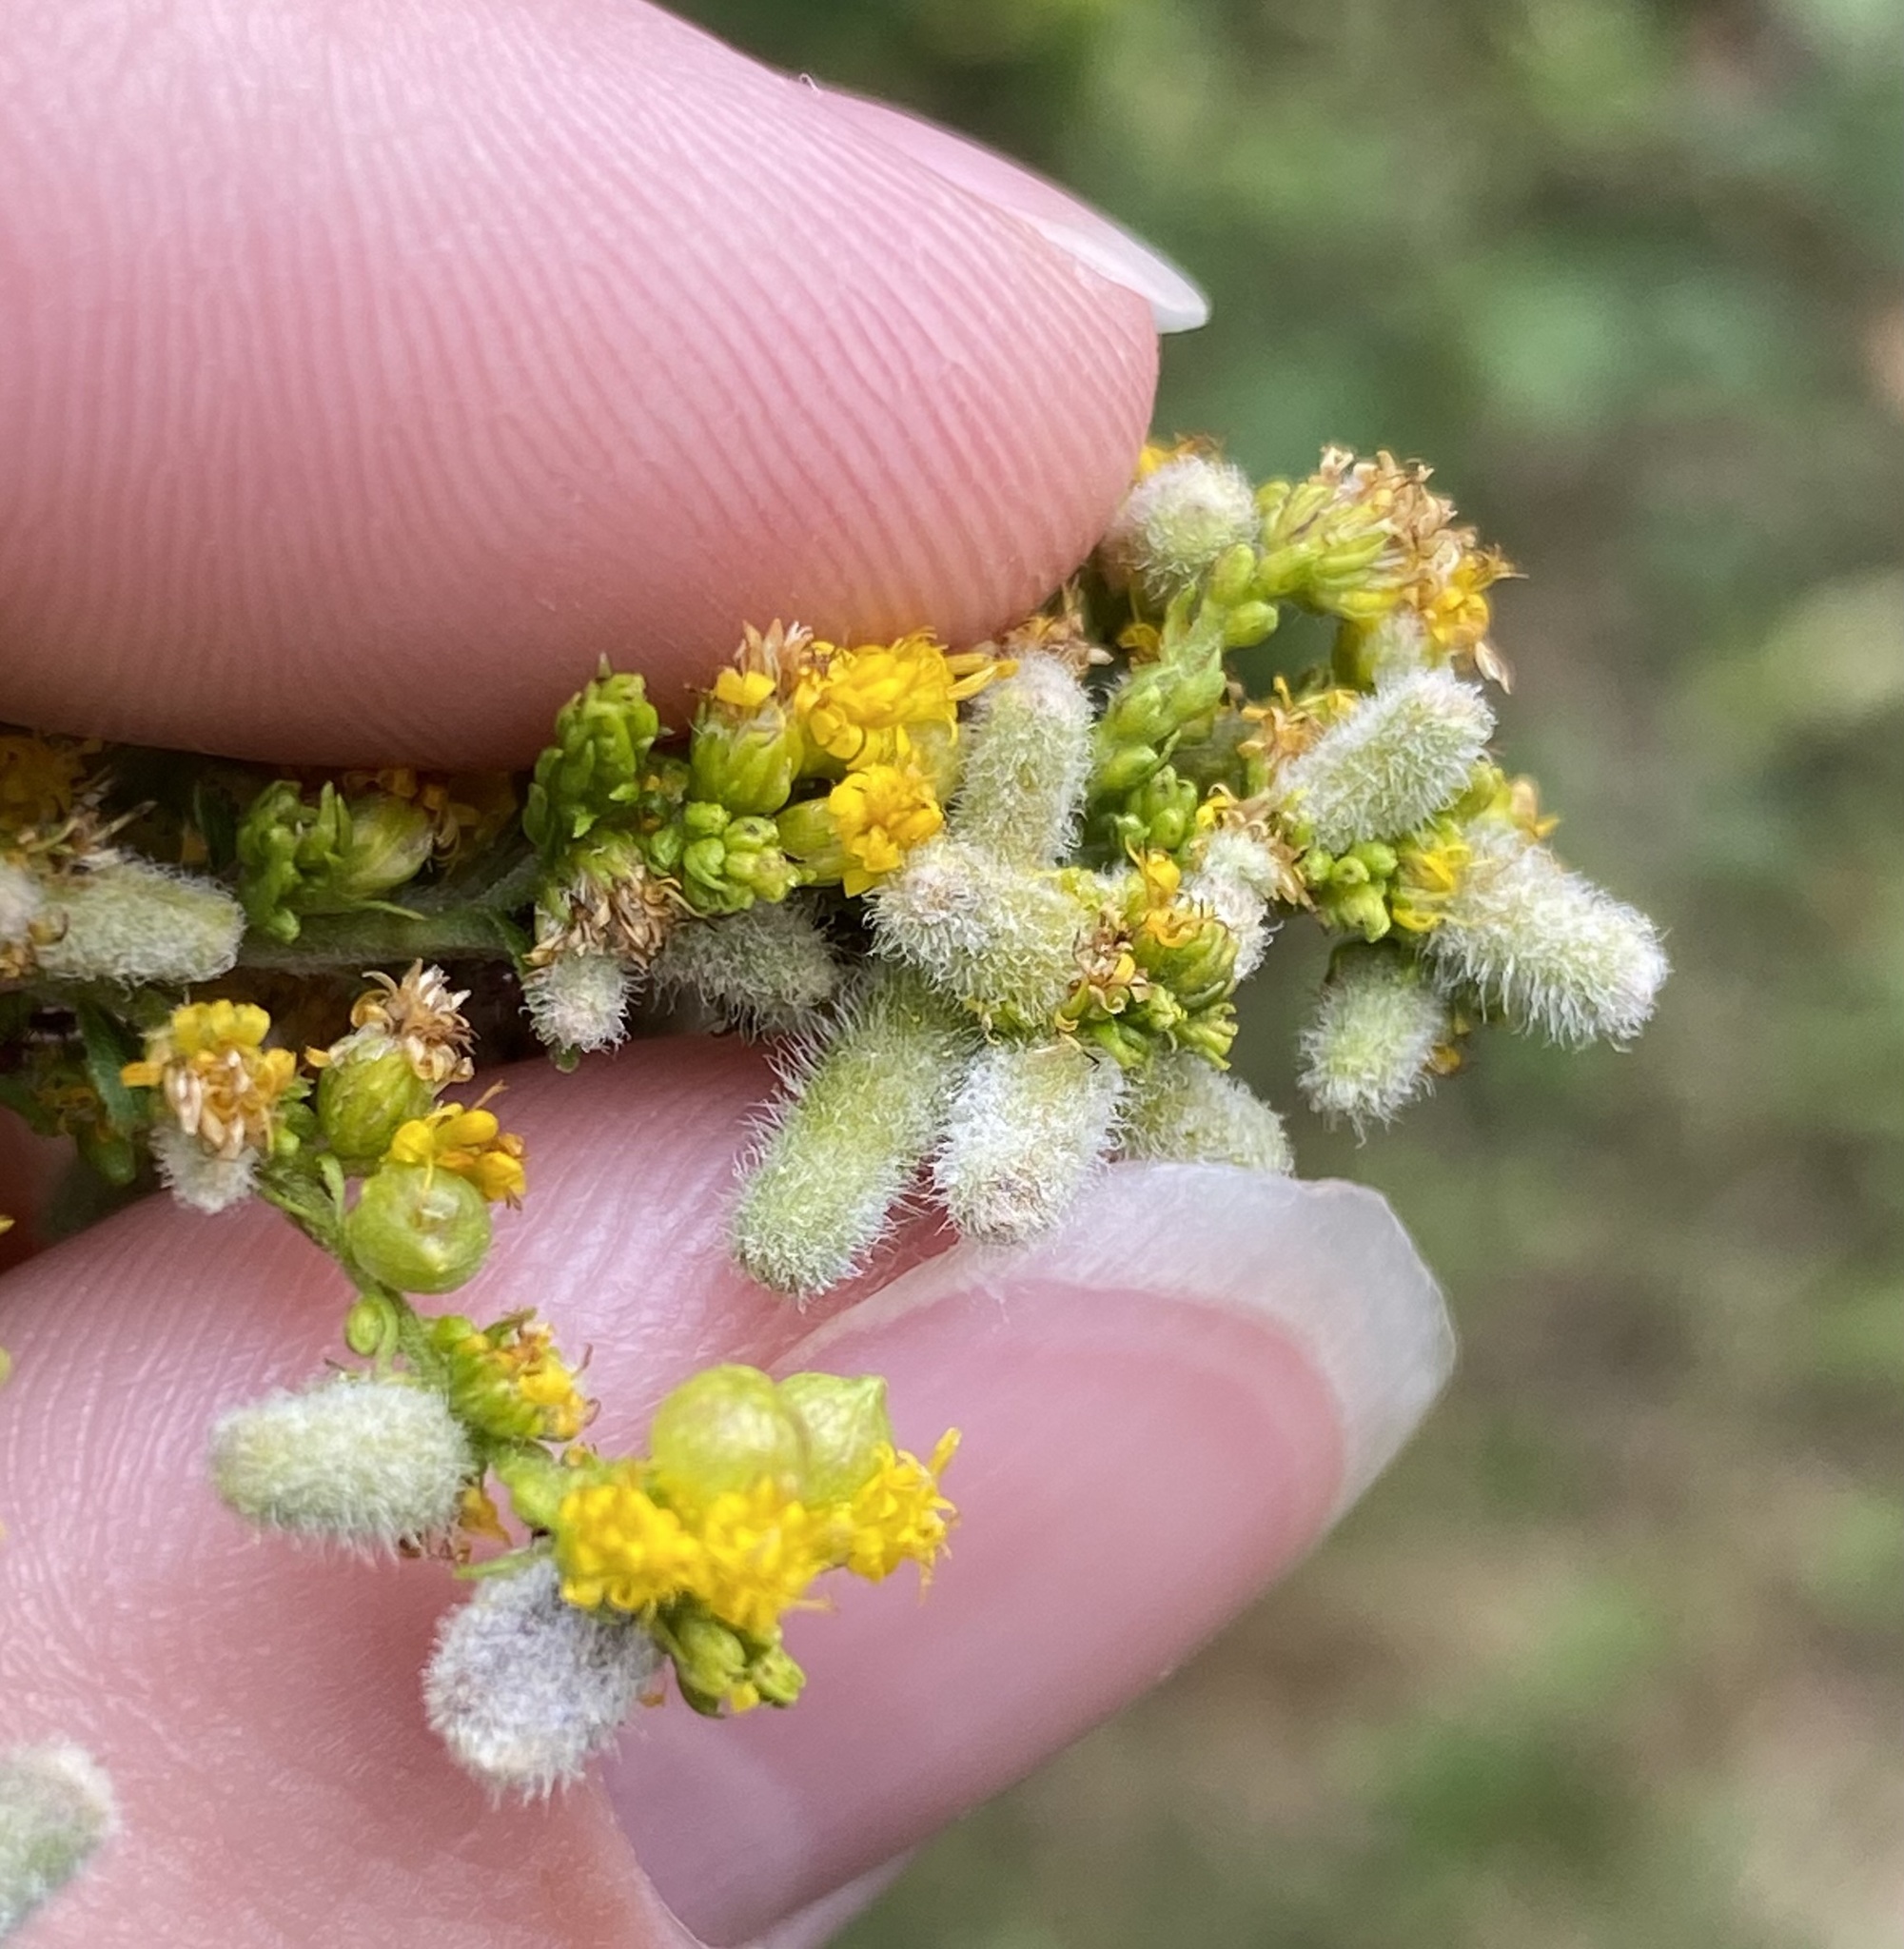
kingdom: Animalia
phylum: Arthropoda
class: Insecta
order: Diptera
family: Cecidomyiidae
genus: Schizomyia
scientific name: Schizomyia racemicola
